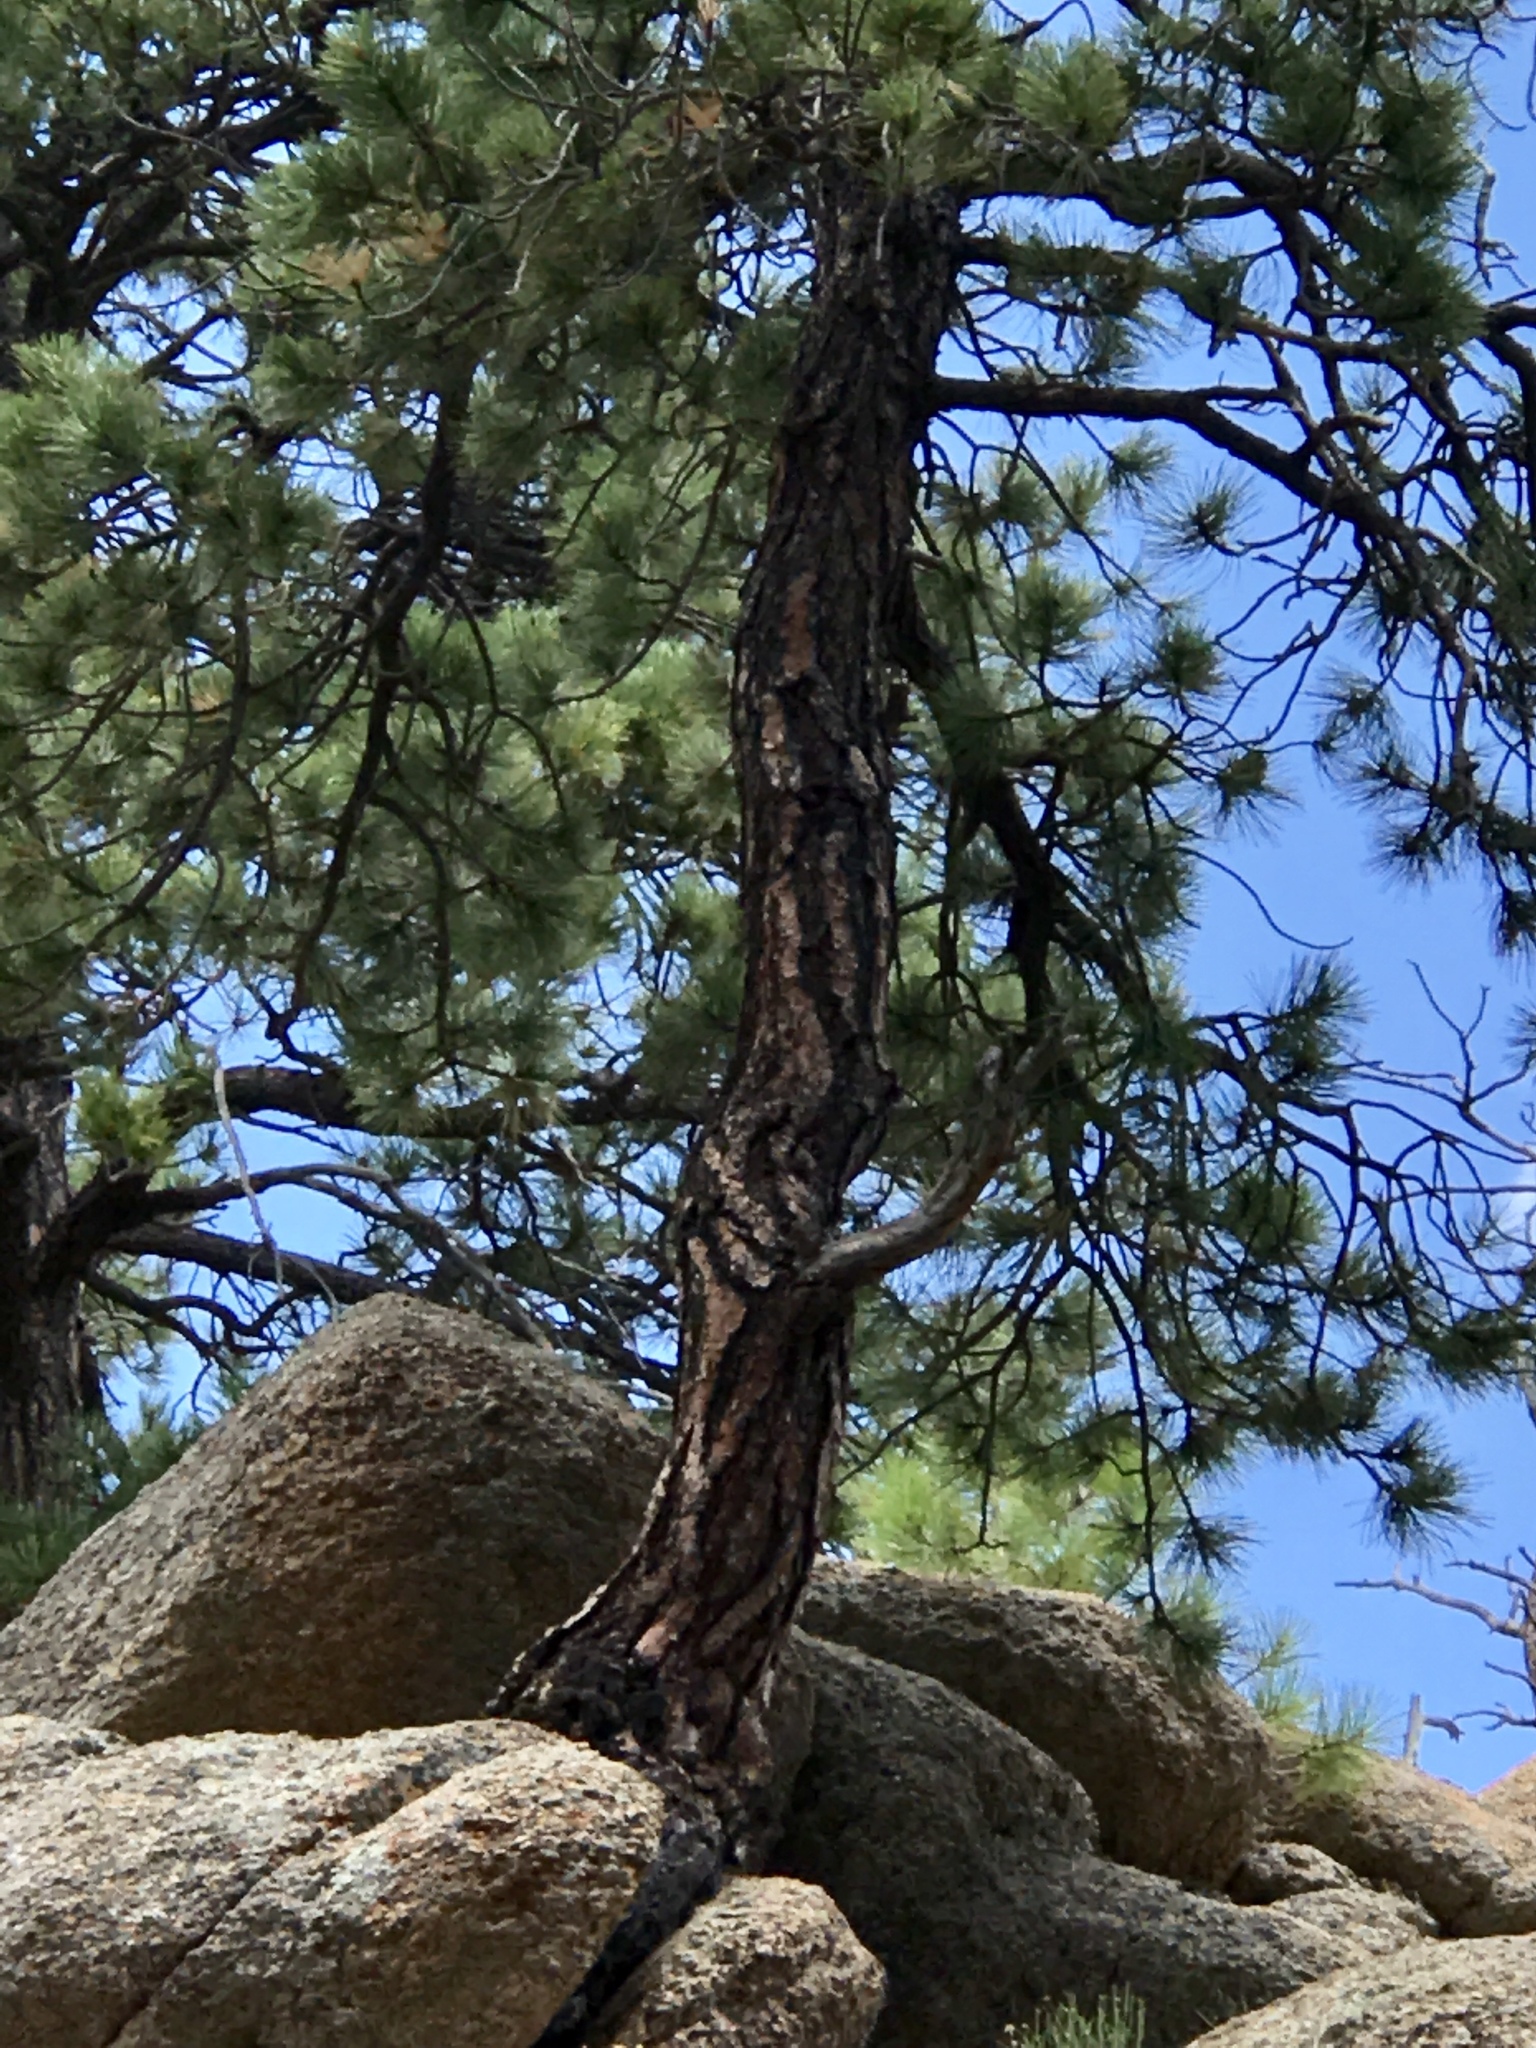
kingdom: Plantae
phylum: Tracheophyta
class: Pinopsida
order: Pinales
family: Pinaceae
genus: Pinus
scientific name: Pinus ponderosa
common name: Western yellow-pine
